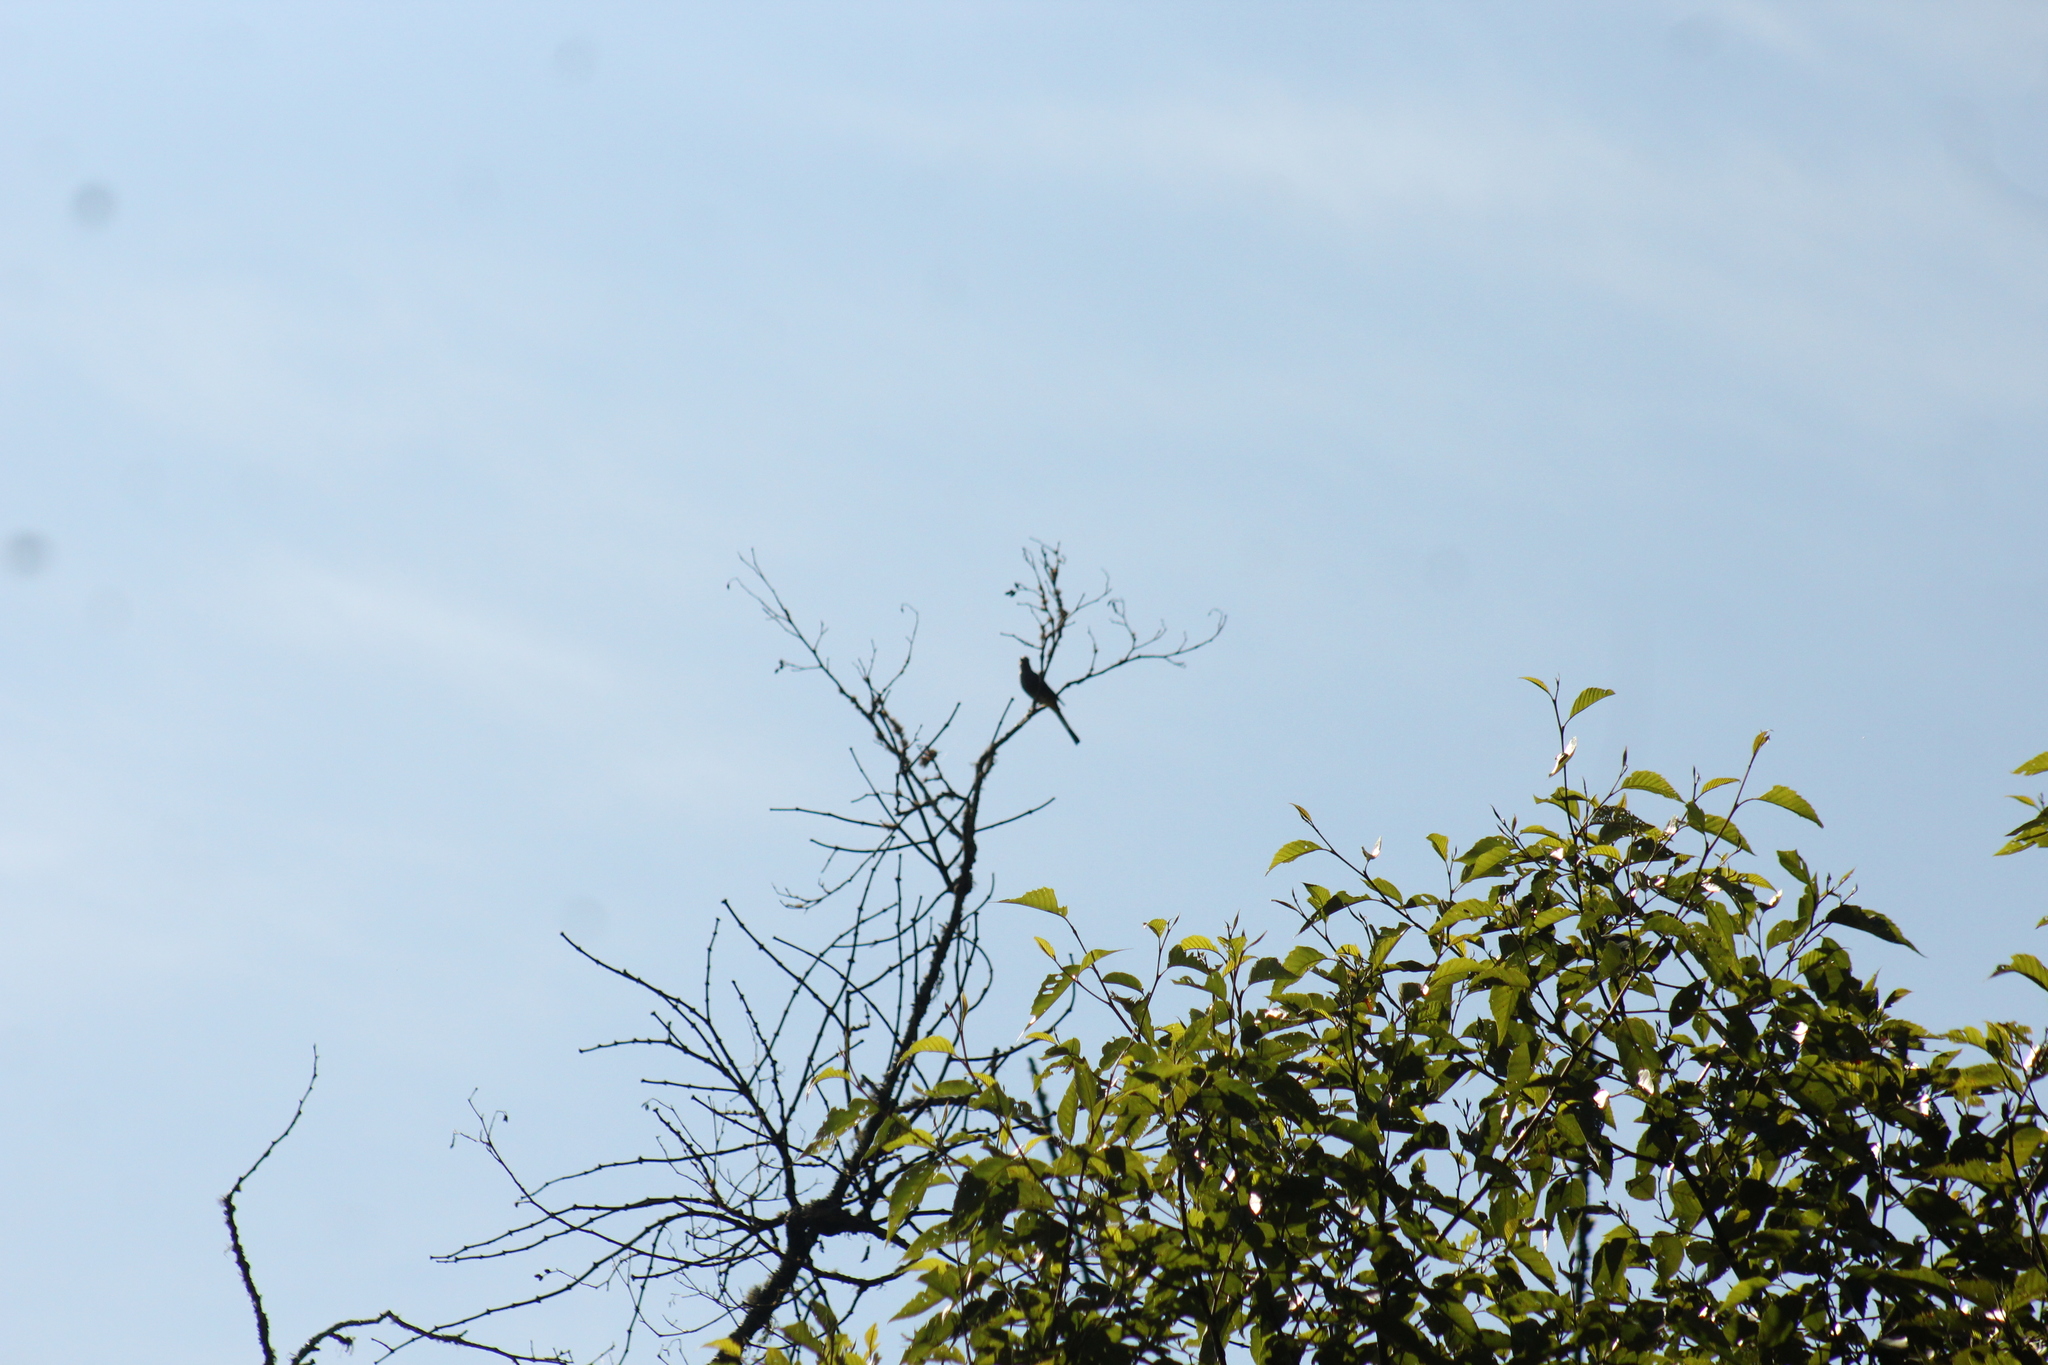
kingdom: Animalia
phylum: Chordata
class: Aves
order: Passeriformes
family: Ptilogonatidae
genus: Ptilogonys
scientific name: Ptilogonys cinereus
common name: Gray silky-flycatcher
